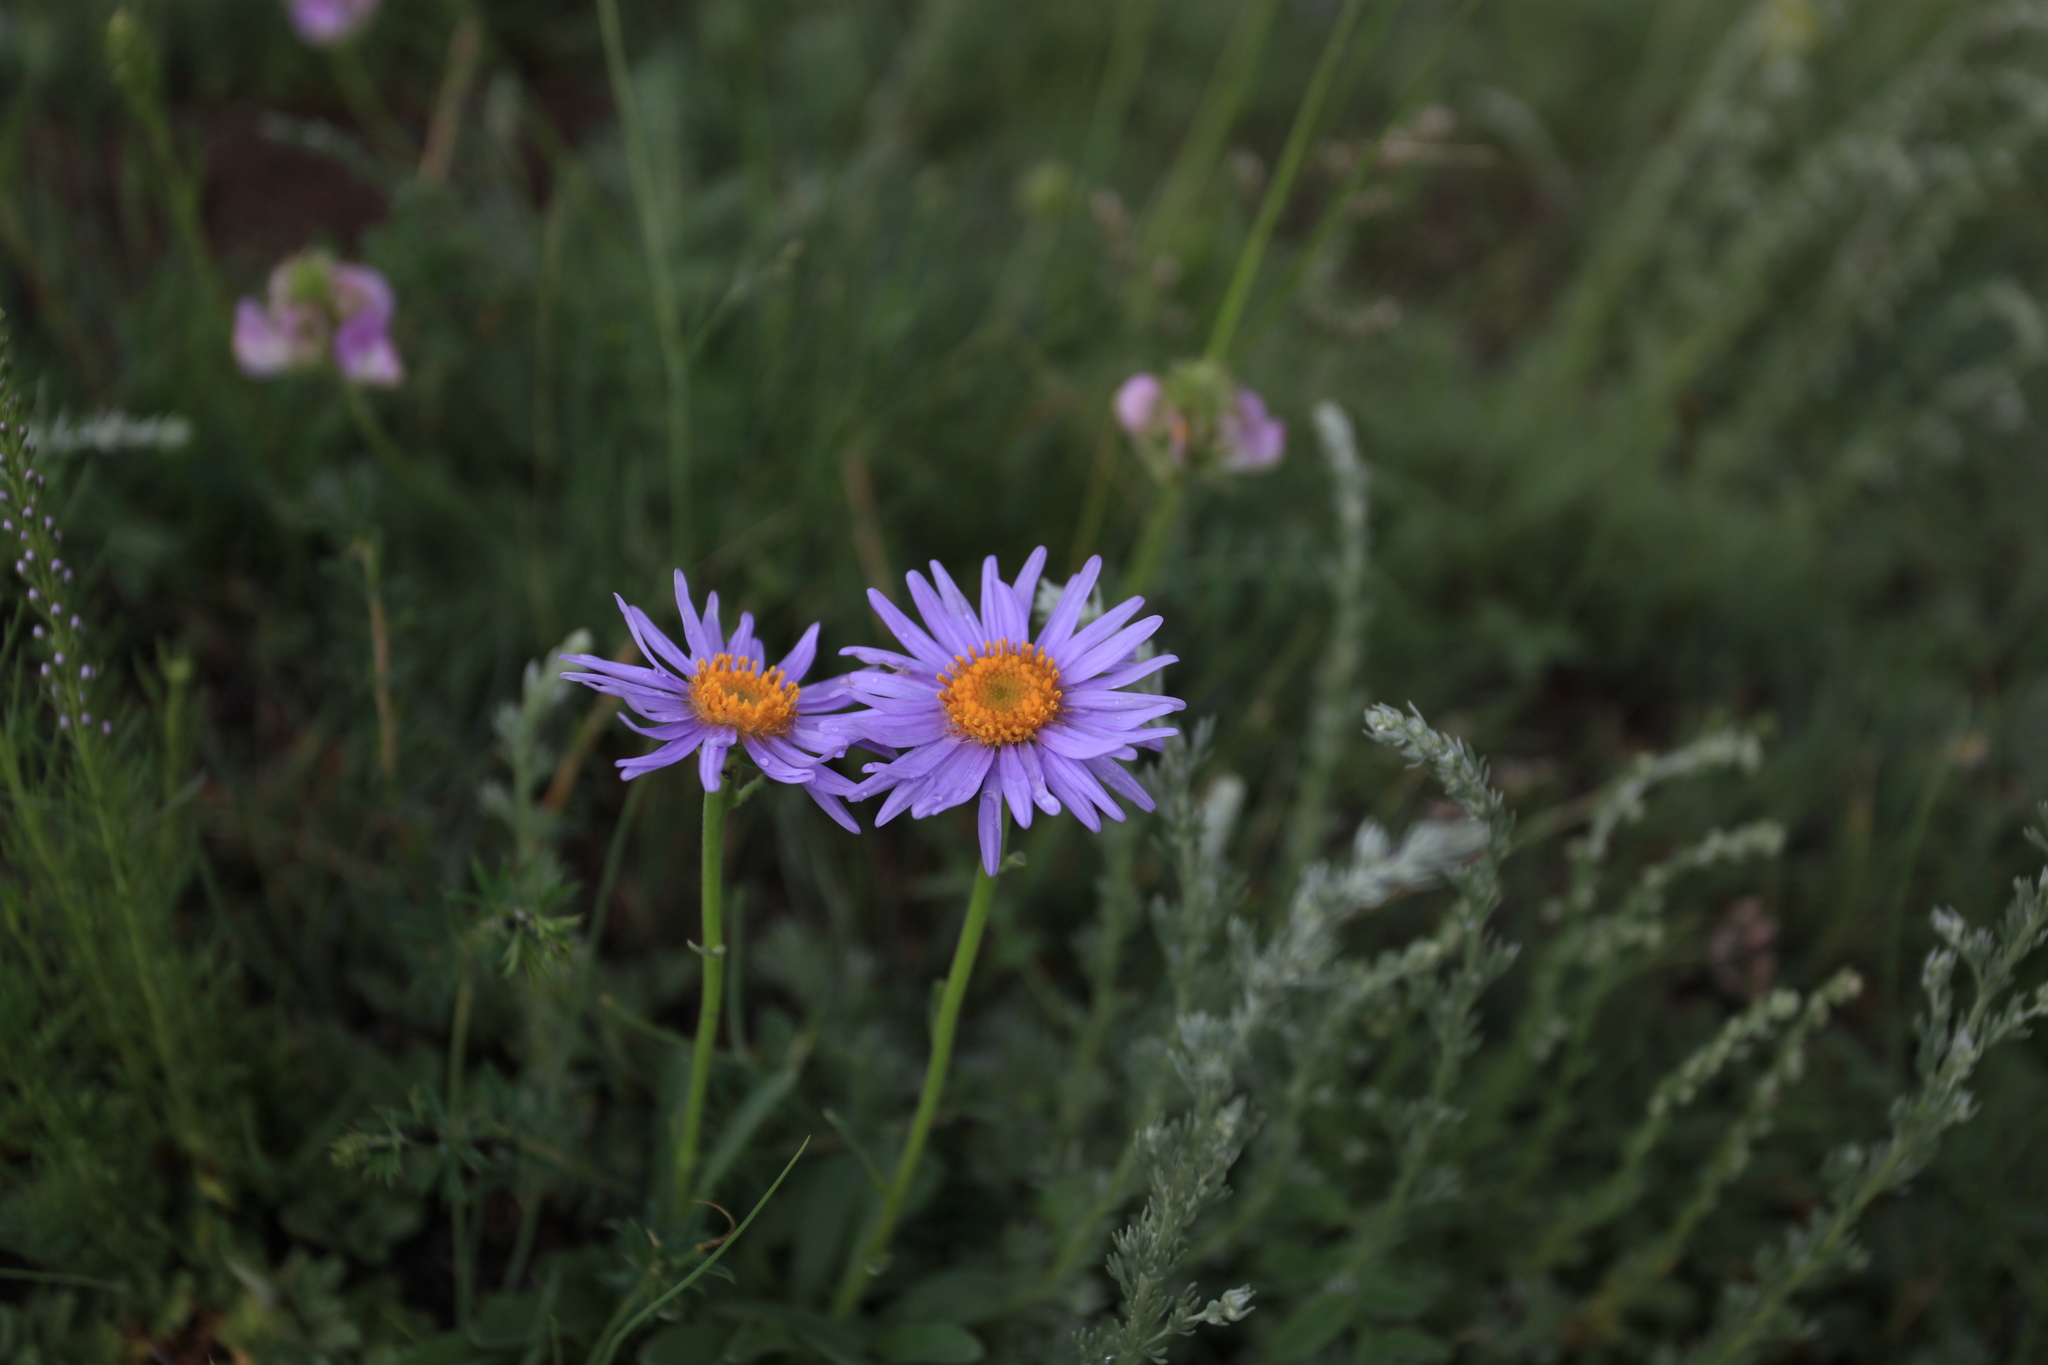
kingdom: Plantae
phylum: Tracheophyta
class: Magnoliopsida
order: Asterales
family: Asteraceae
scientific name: Asteraceae
